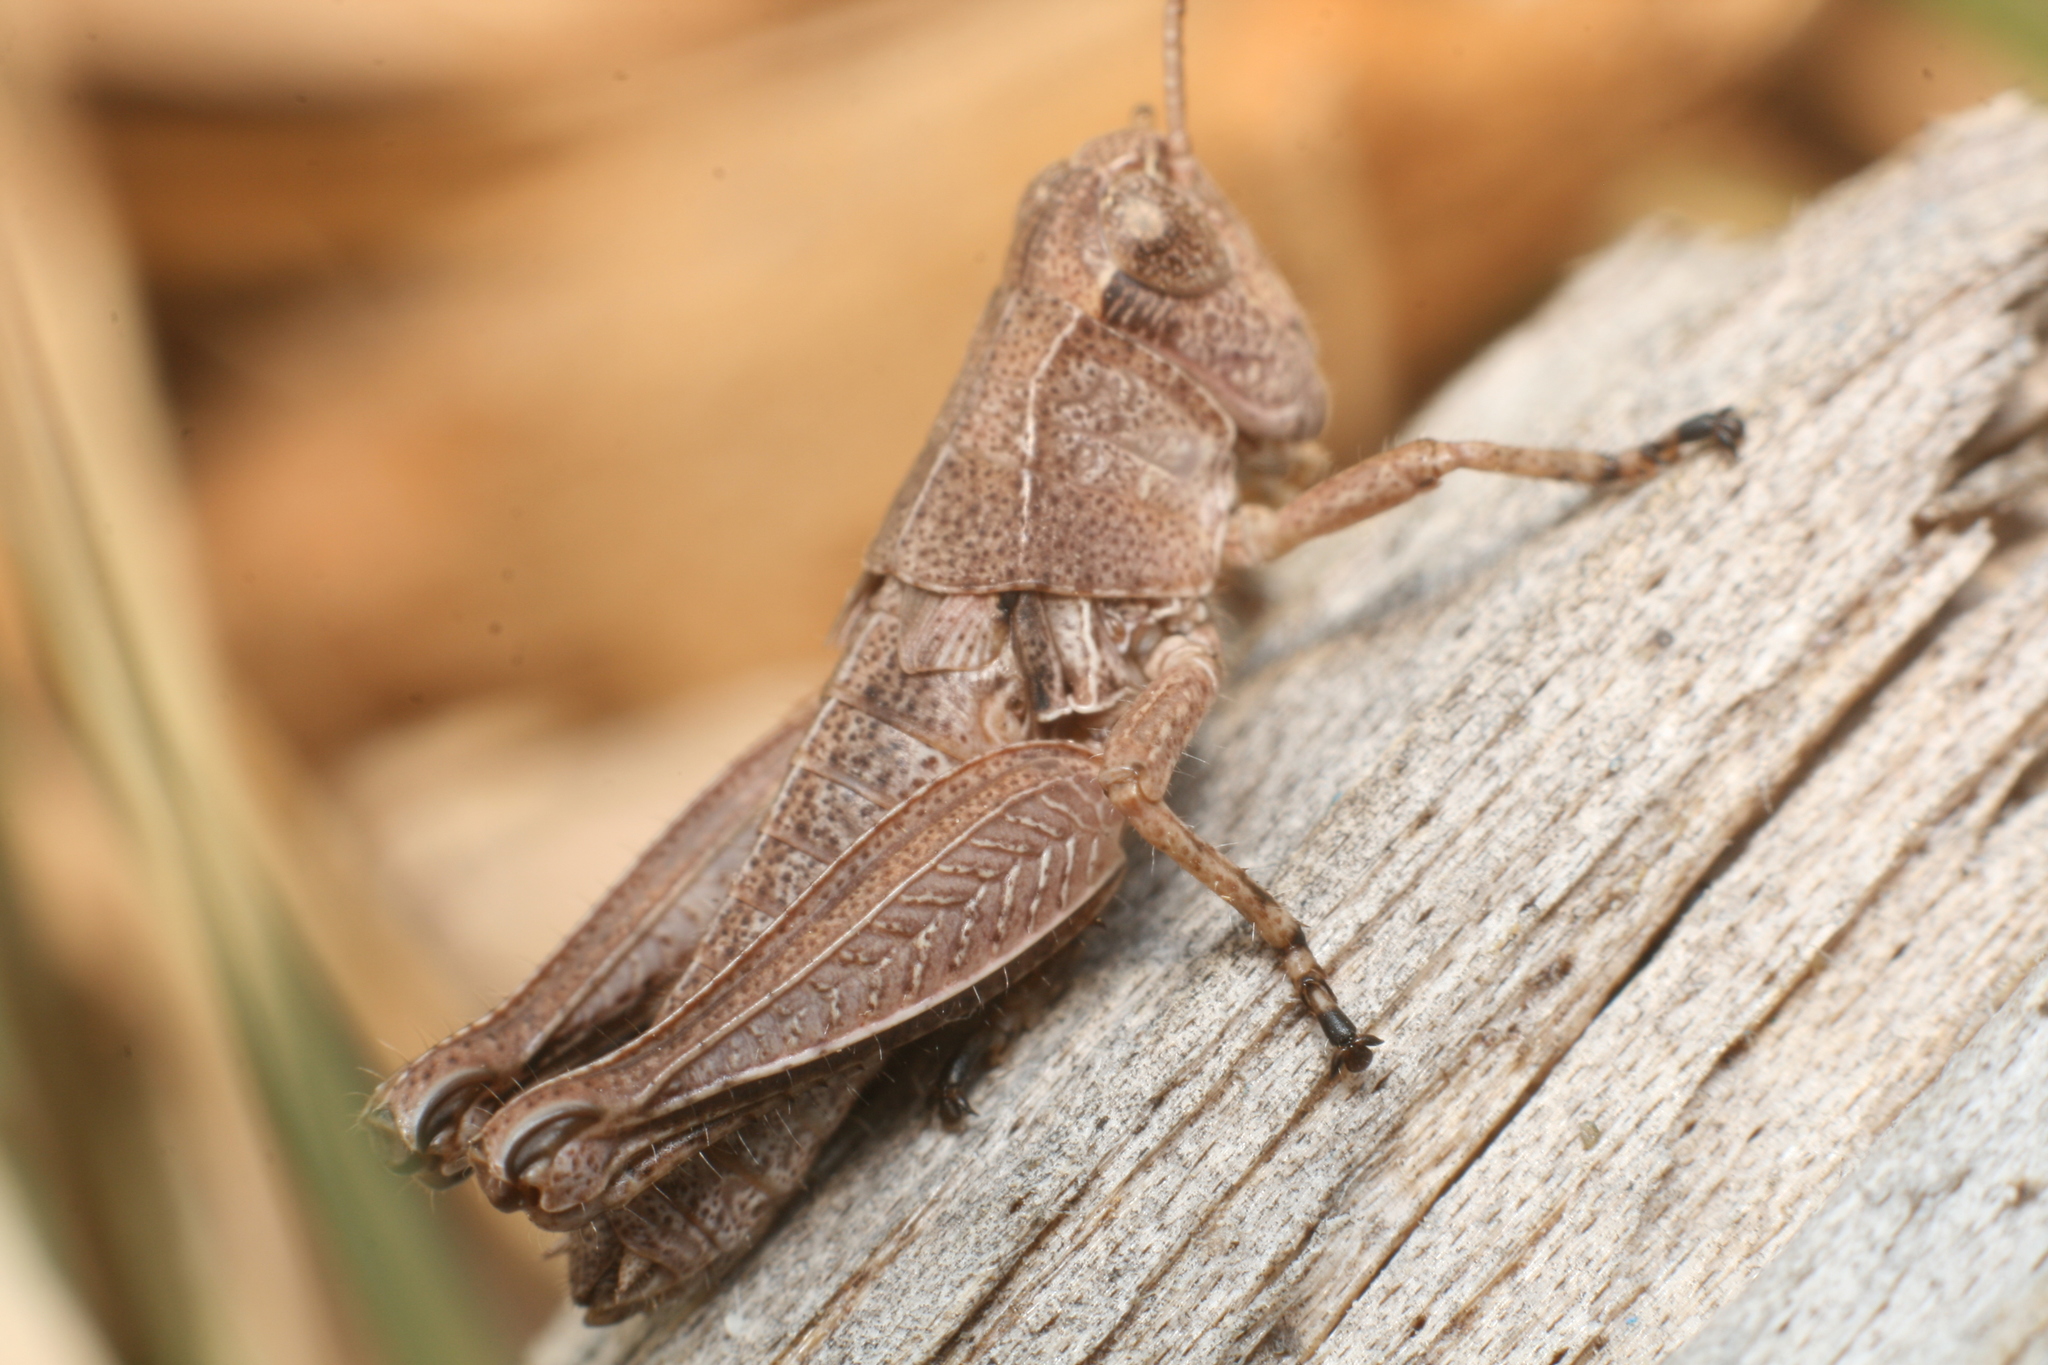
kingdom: Animalia
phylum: Arthropoda
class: Insecta
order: Orthoptera
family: Acrididae
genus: Phaulacridium
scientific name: Phaulacridium marginale
